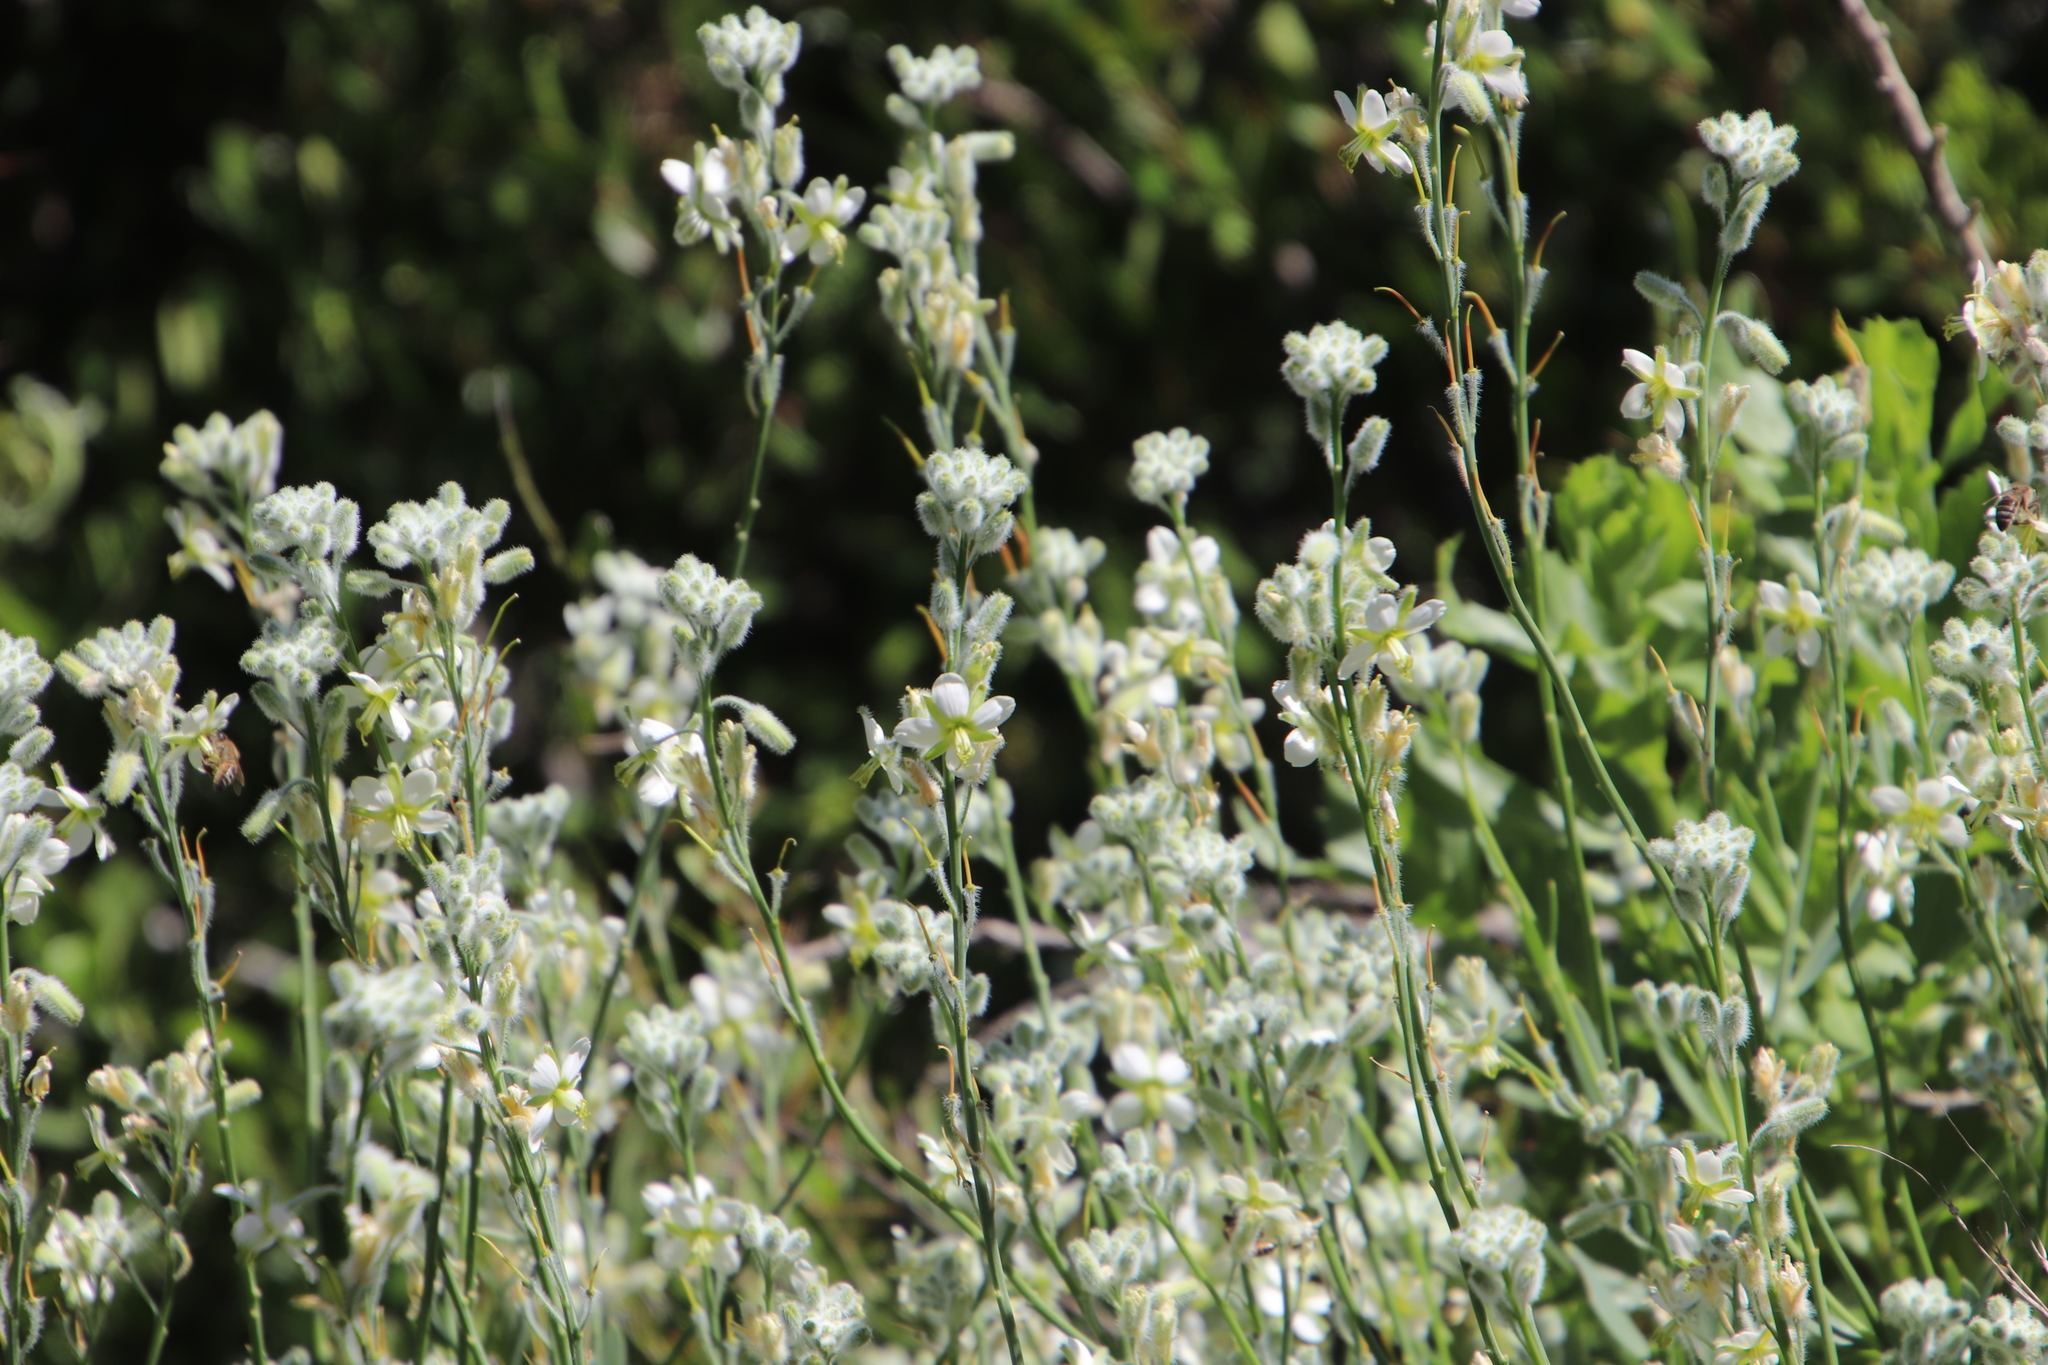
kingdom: Plantae
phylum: Tracheophyta
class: Magnoliopsida
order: Brassicales
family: Brassicaceae
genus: Heliophila
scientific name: Heliophila linearis
